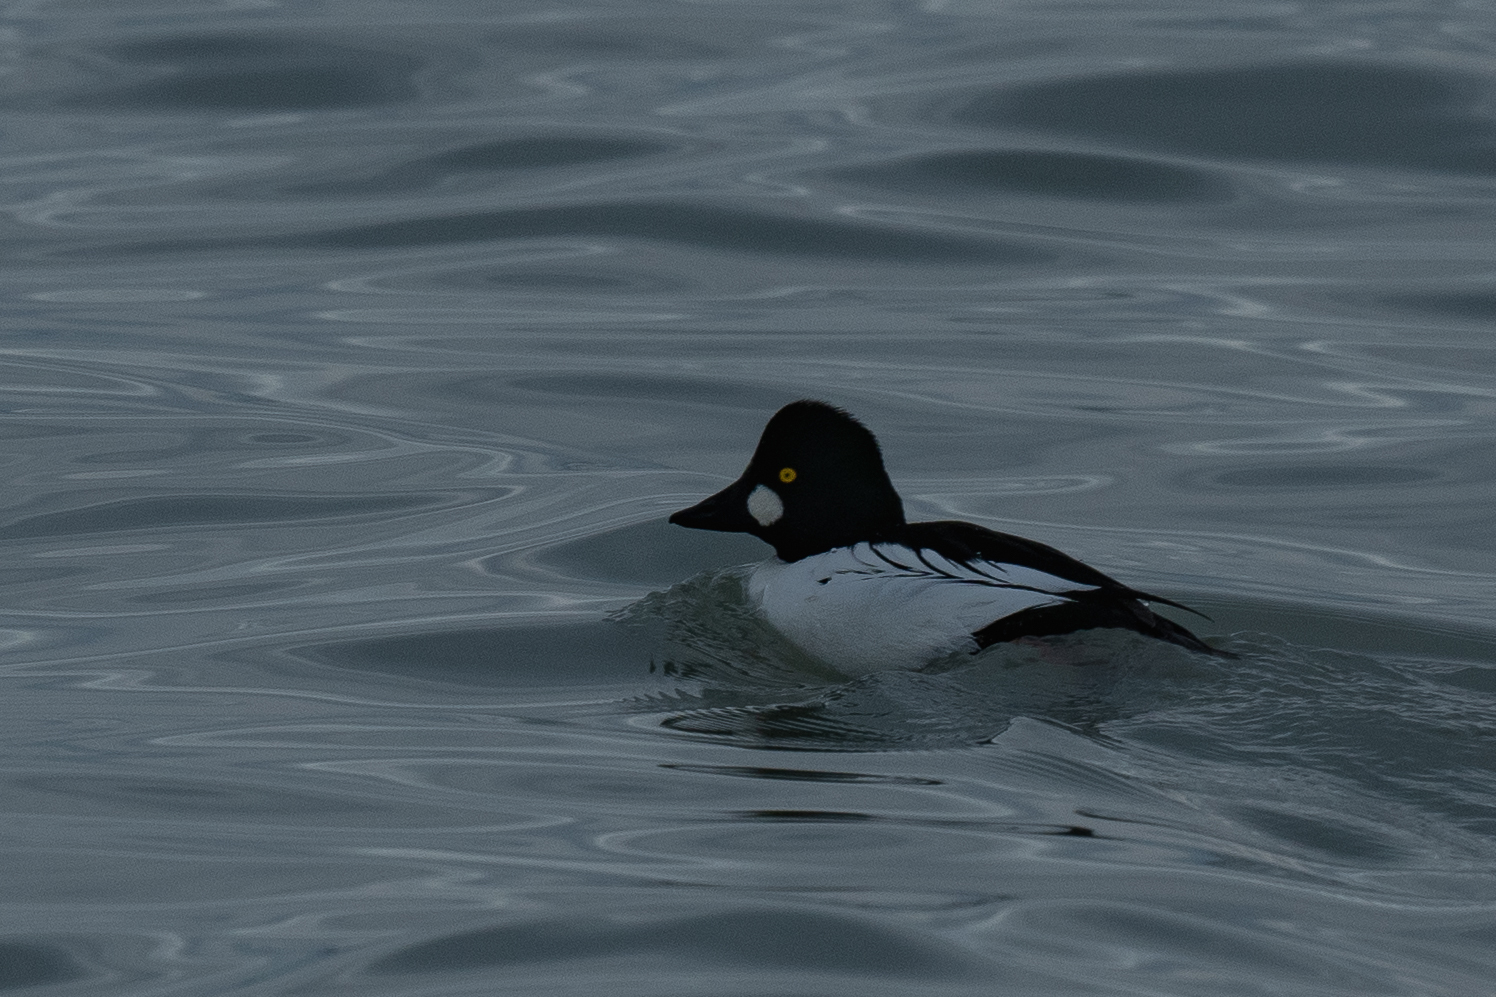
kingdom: Animalia
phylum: Chordata
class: Aves
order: Anseriformes
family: Anatidae
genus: Bucephala
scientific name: Bucephala clangula
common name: Common goldeneye
